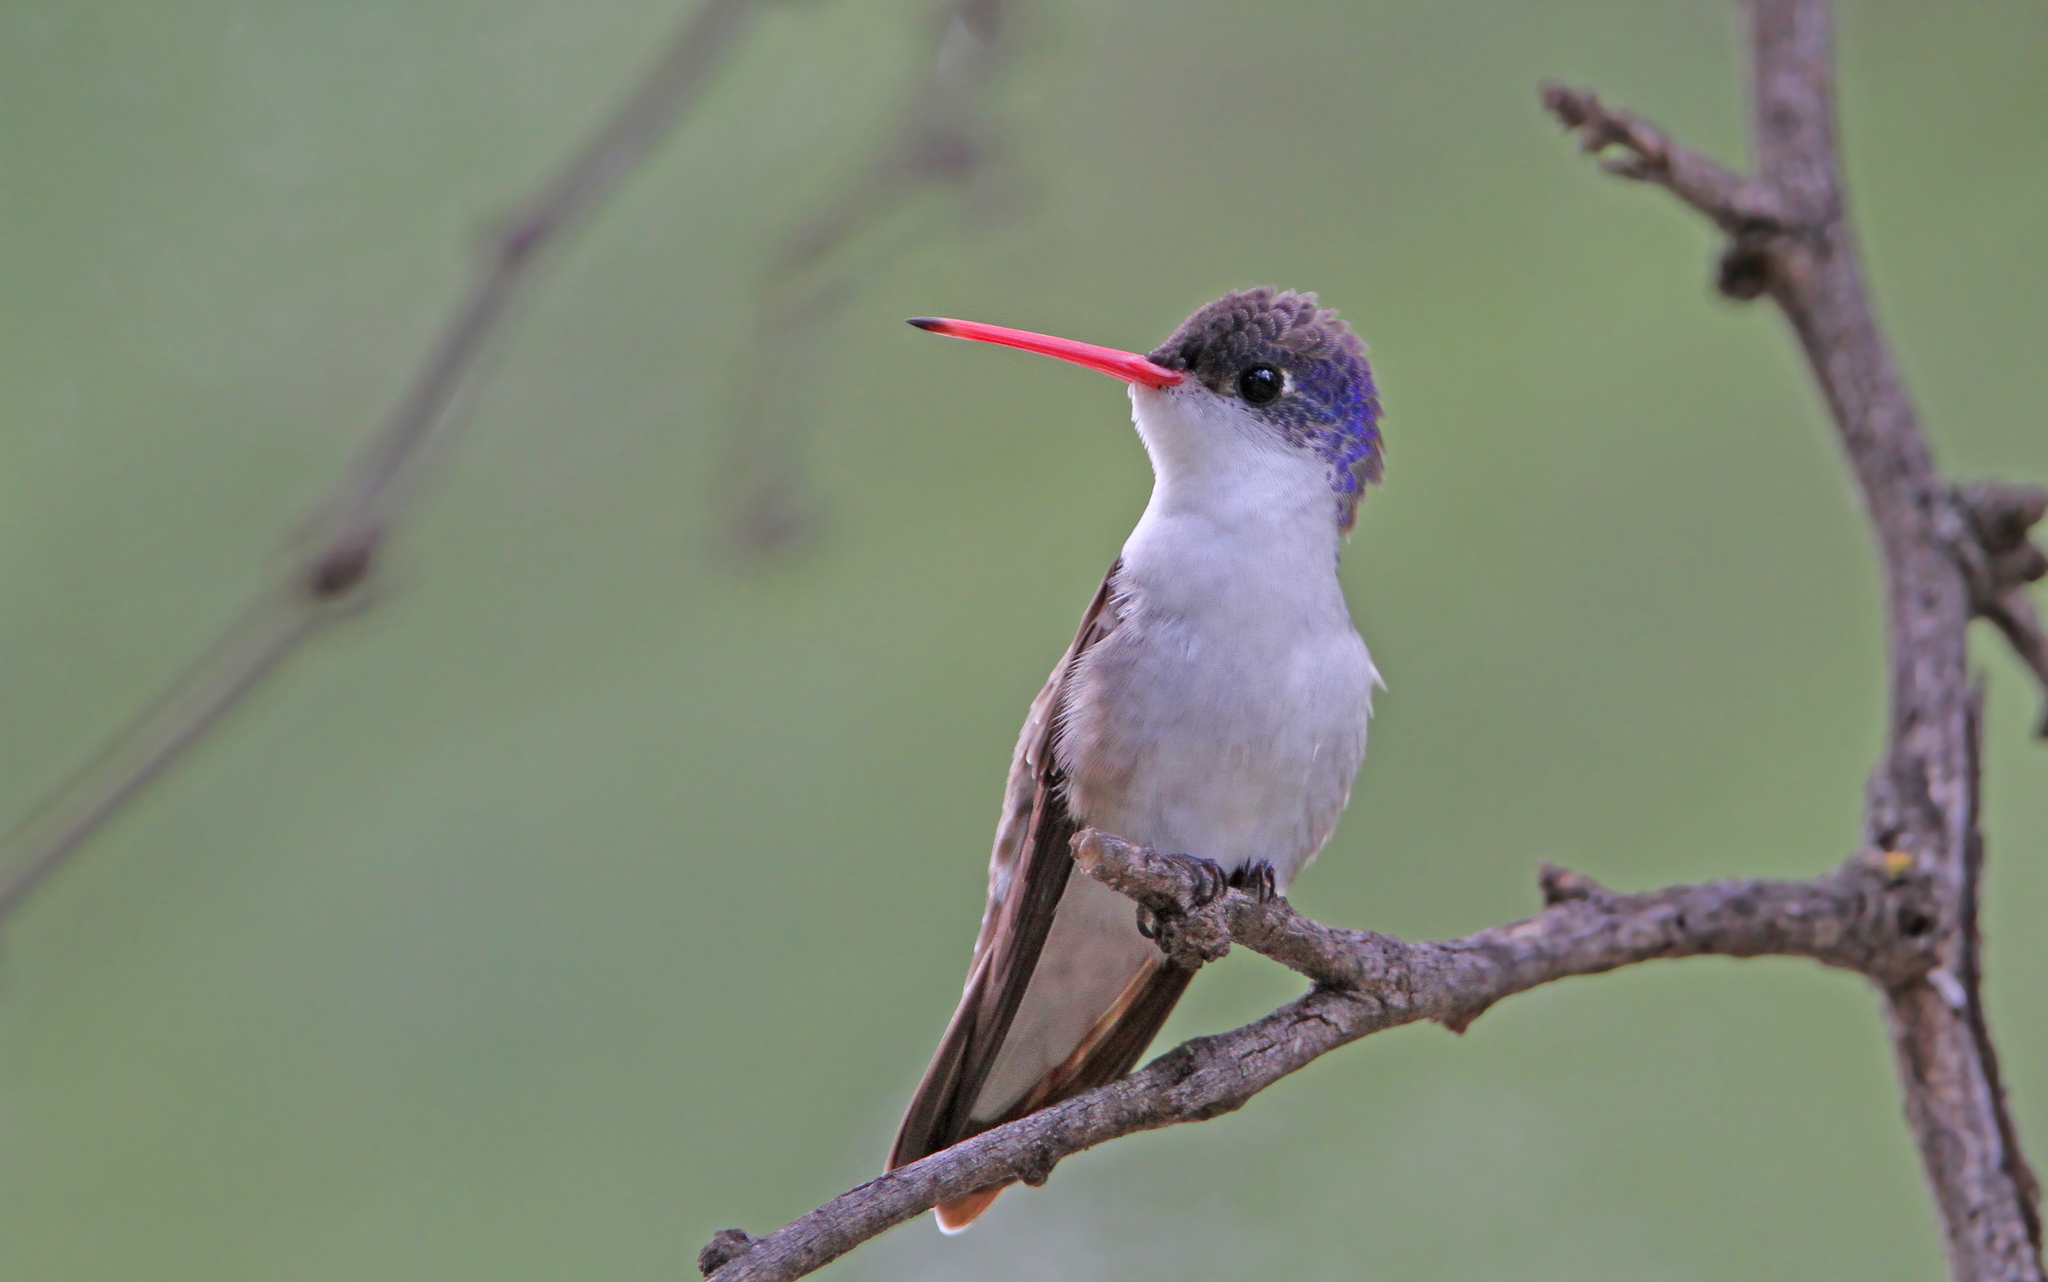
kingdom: Animalia
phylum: Chordata
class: Aves
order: Apodiformes
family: Trochilidae
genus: Leucolia
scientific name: Leucolia violiceps
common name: Violet-crowned hummingbird
